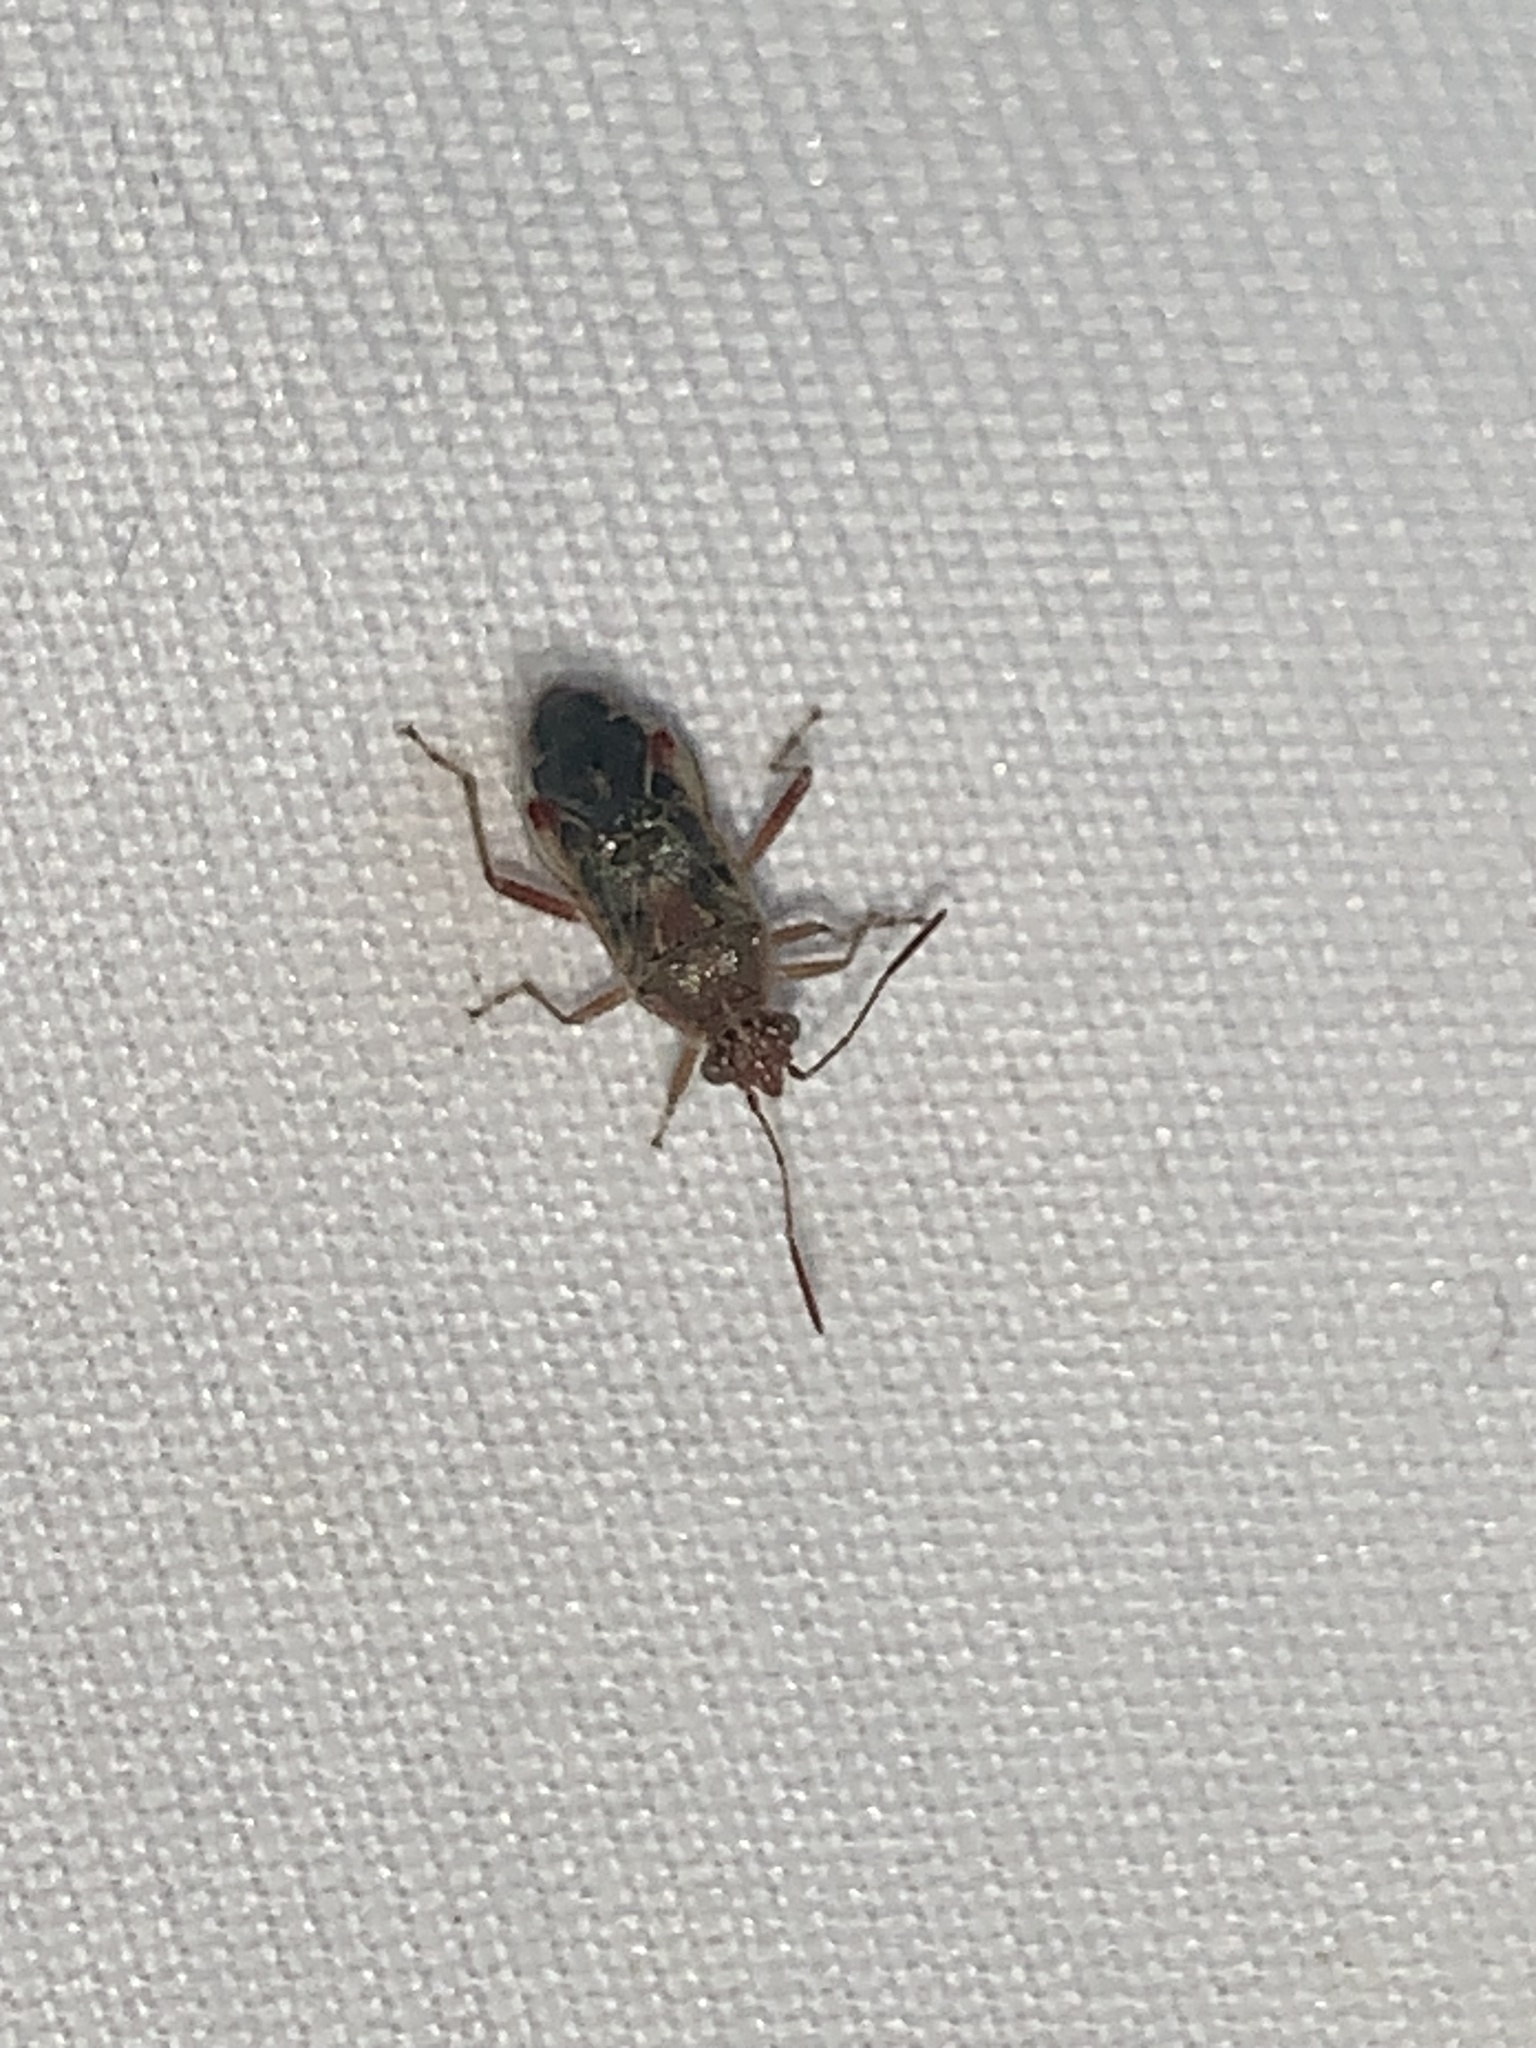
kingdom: Animalia
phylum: Arthropoda
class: Insecta
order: Hemiptera
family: Rhopalidae
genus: Liorhyssus
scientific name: Liorhyssus hyalinus
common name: Scentless plant bug
